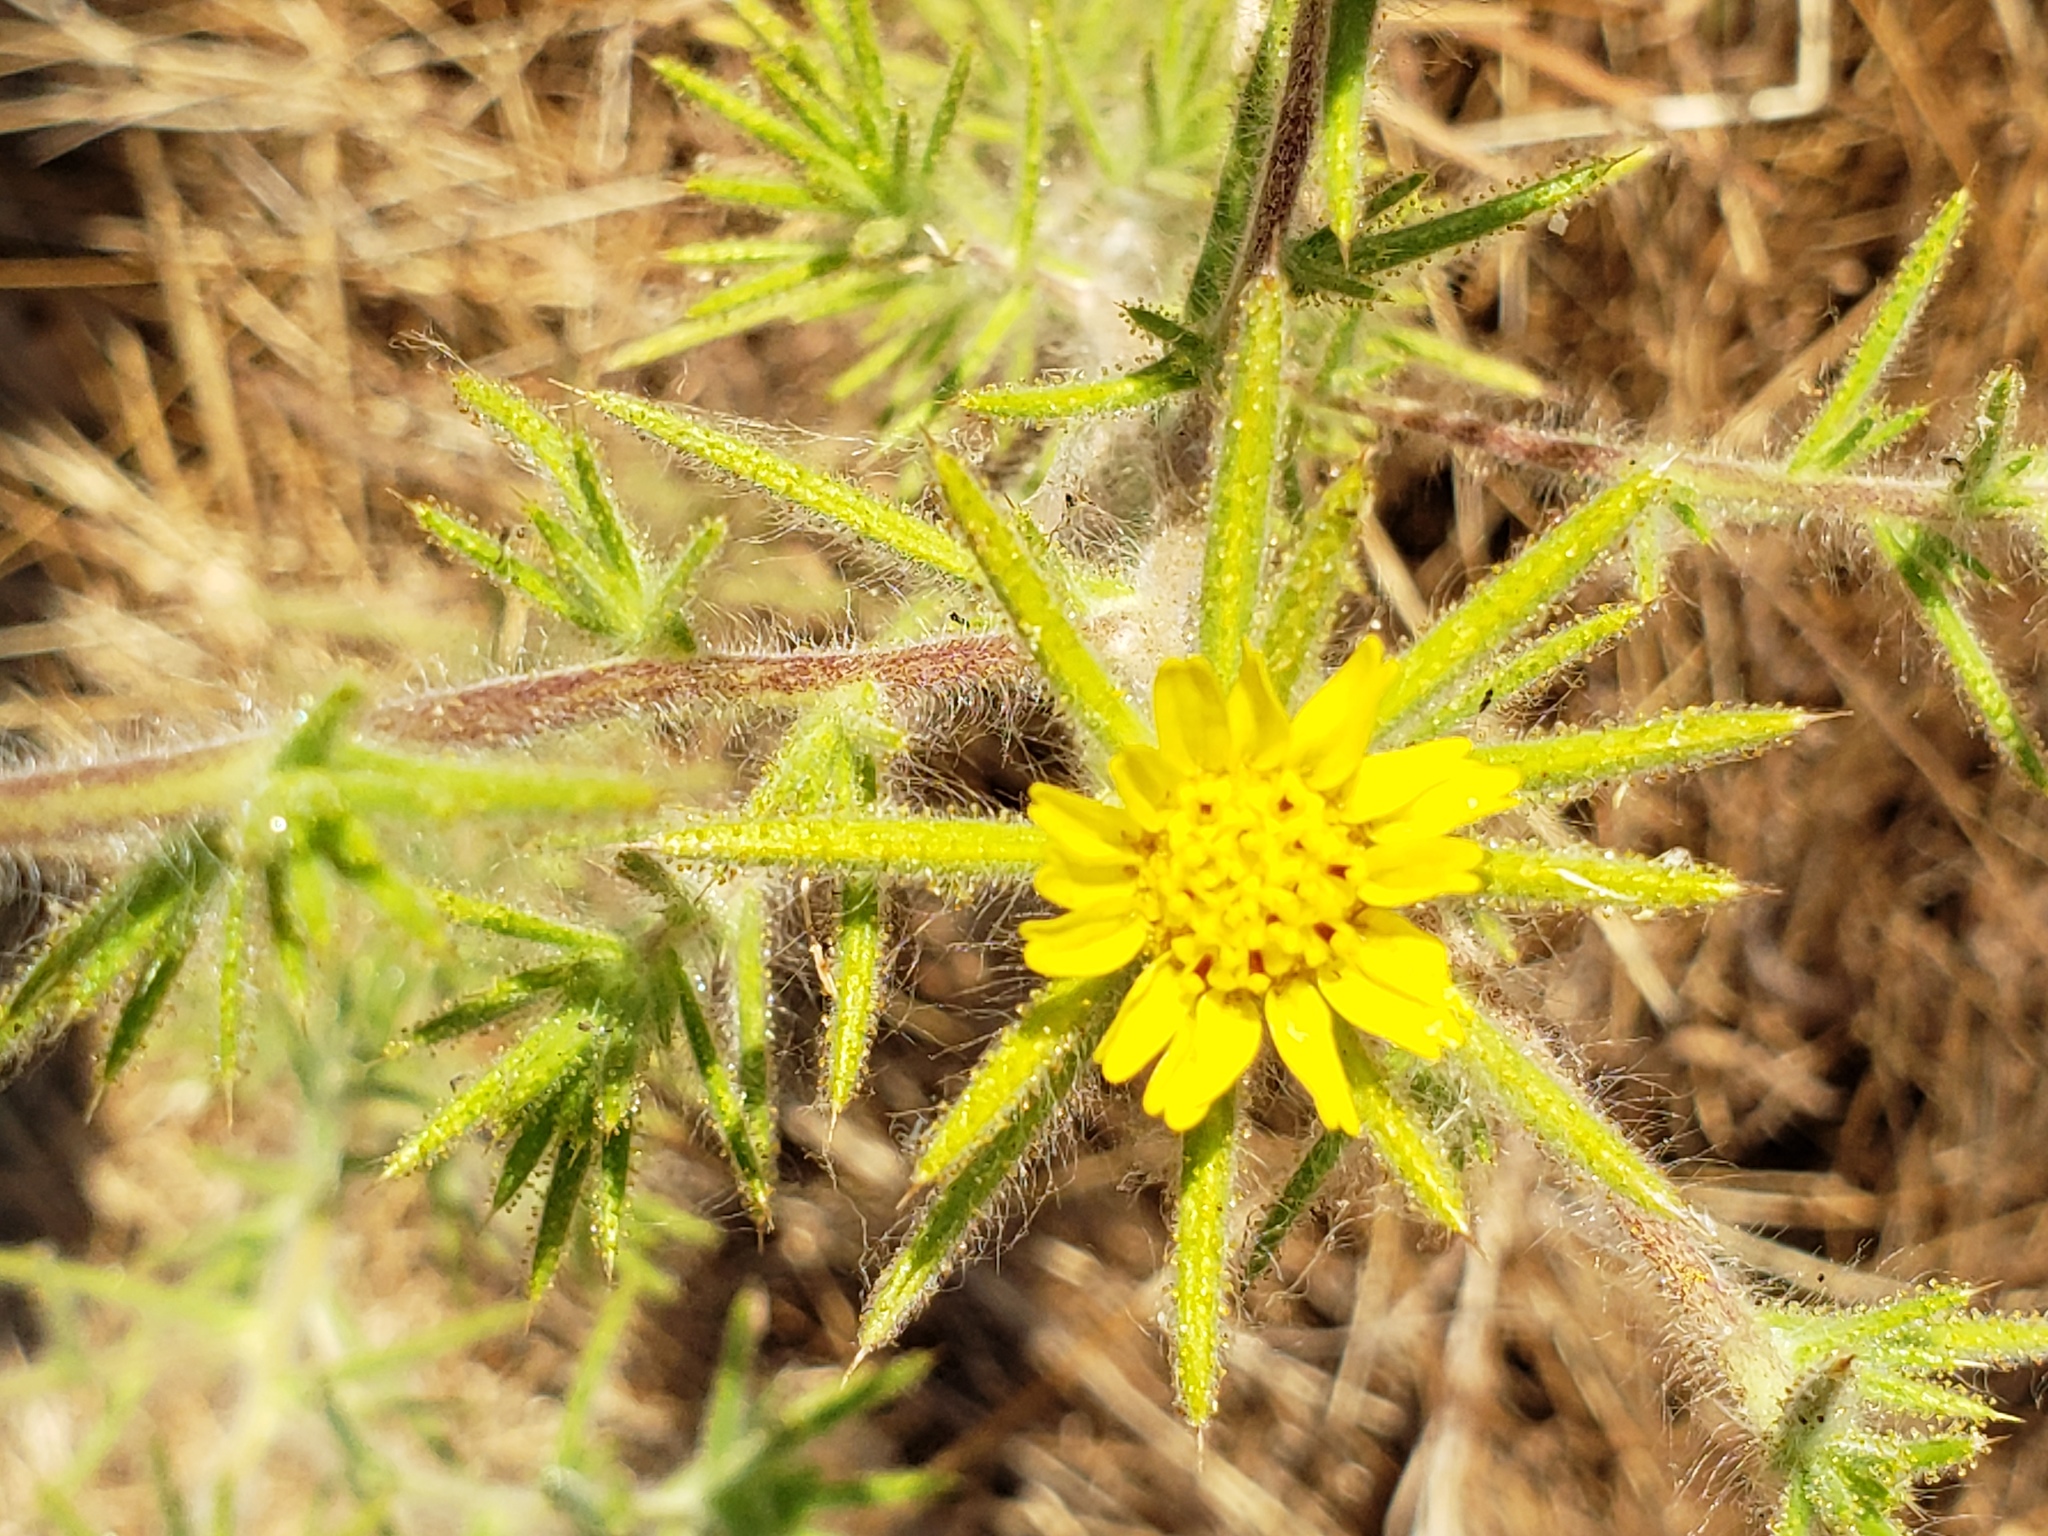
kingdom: Plantae
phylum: Tracheophyta
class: Magnoliopsida
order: Asterales
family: Asteraceae
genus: Centromadia
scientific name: Centromadia fitchii
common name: Fitch's spikeweed
